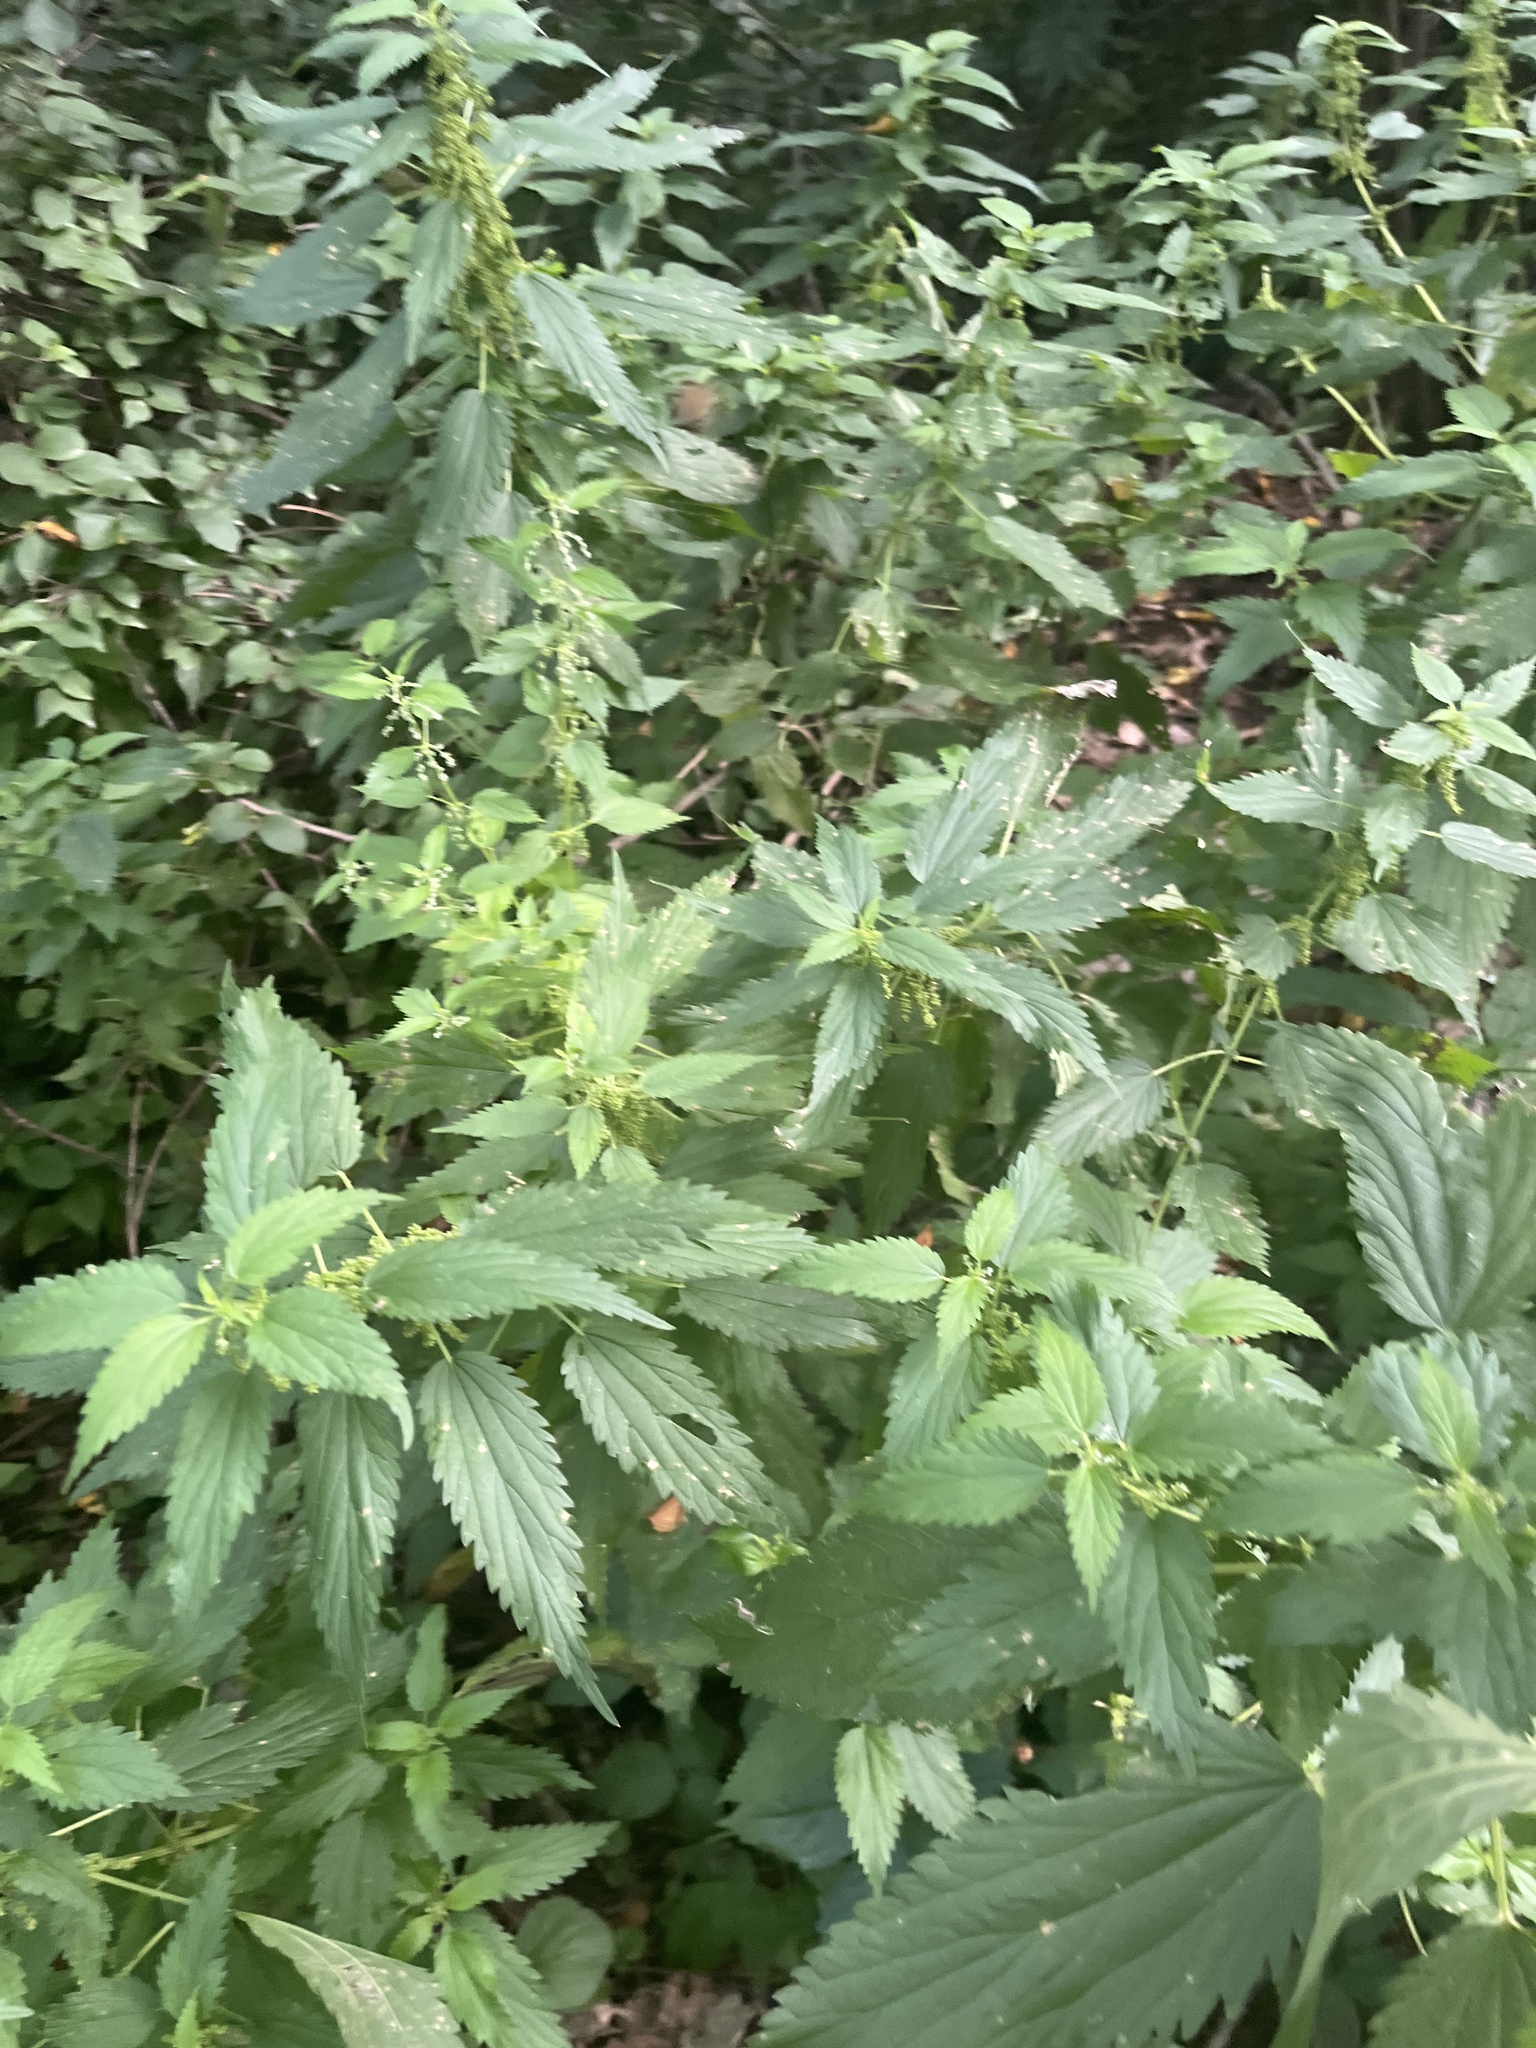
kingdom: Plantae
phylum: Tracheophyta
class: Magnoliopsida
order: Rosales
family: Urticaceae
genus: Urtica
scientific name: Urtica dioica
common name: Common nettle
